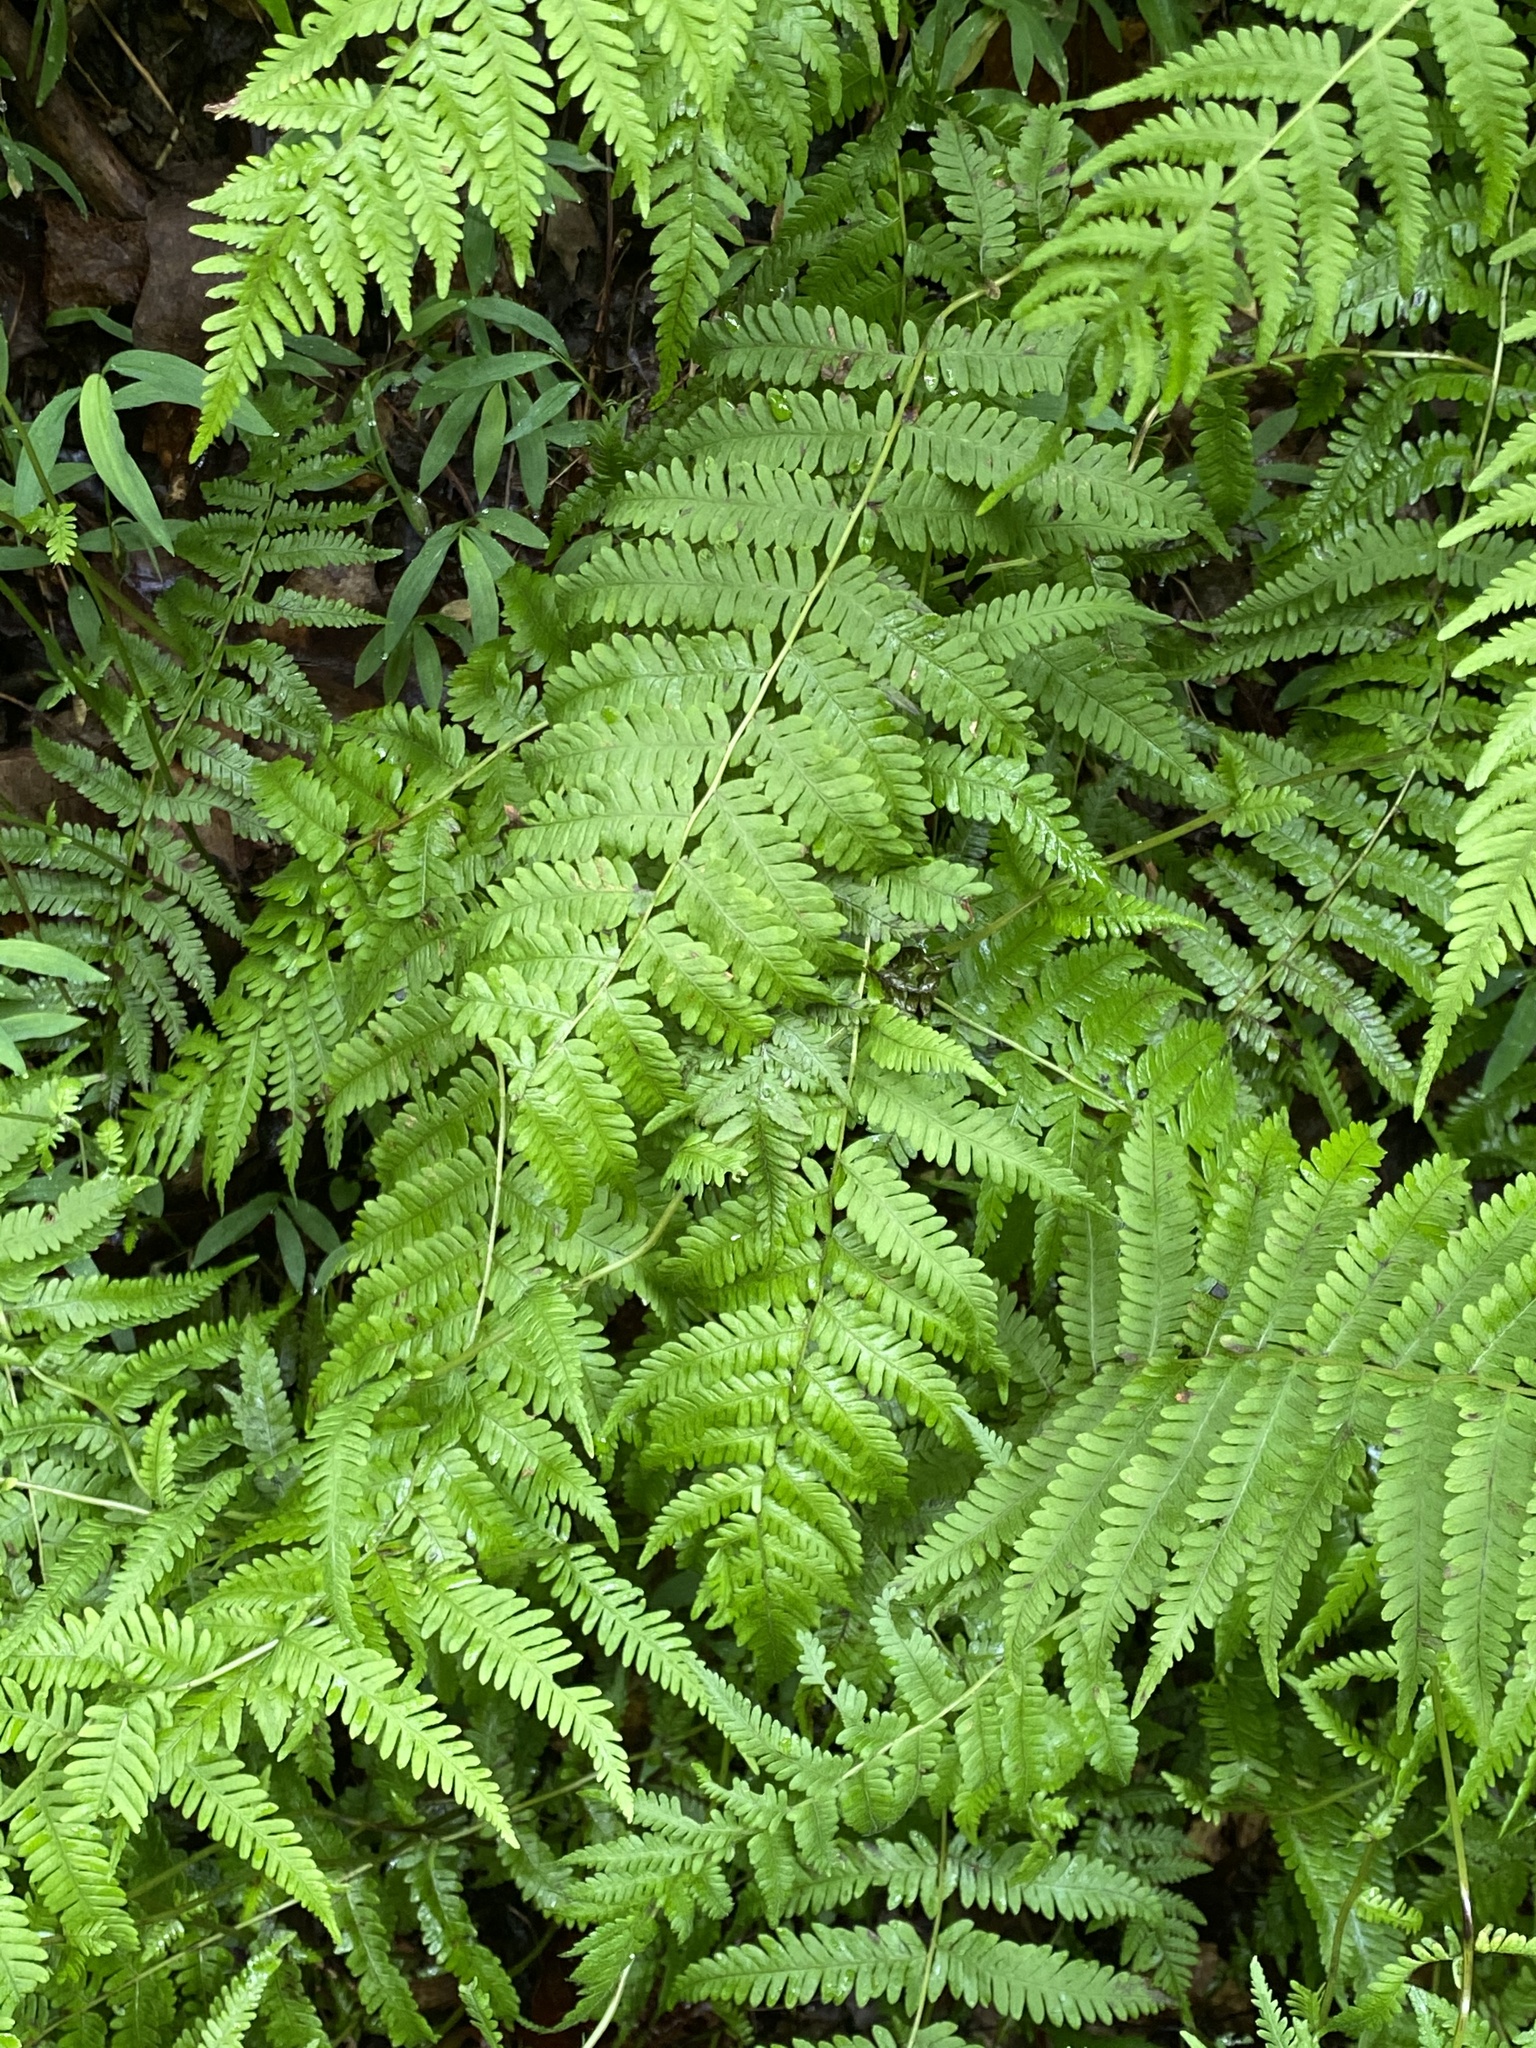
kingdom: Plantae
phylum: Tracheophyta
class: Polypodiopsida
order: Polypodiales
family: Thelypteridaceae
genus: Amauropelta
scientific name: Amauropelta noveboracensis
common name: New york fern
